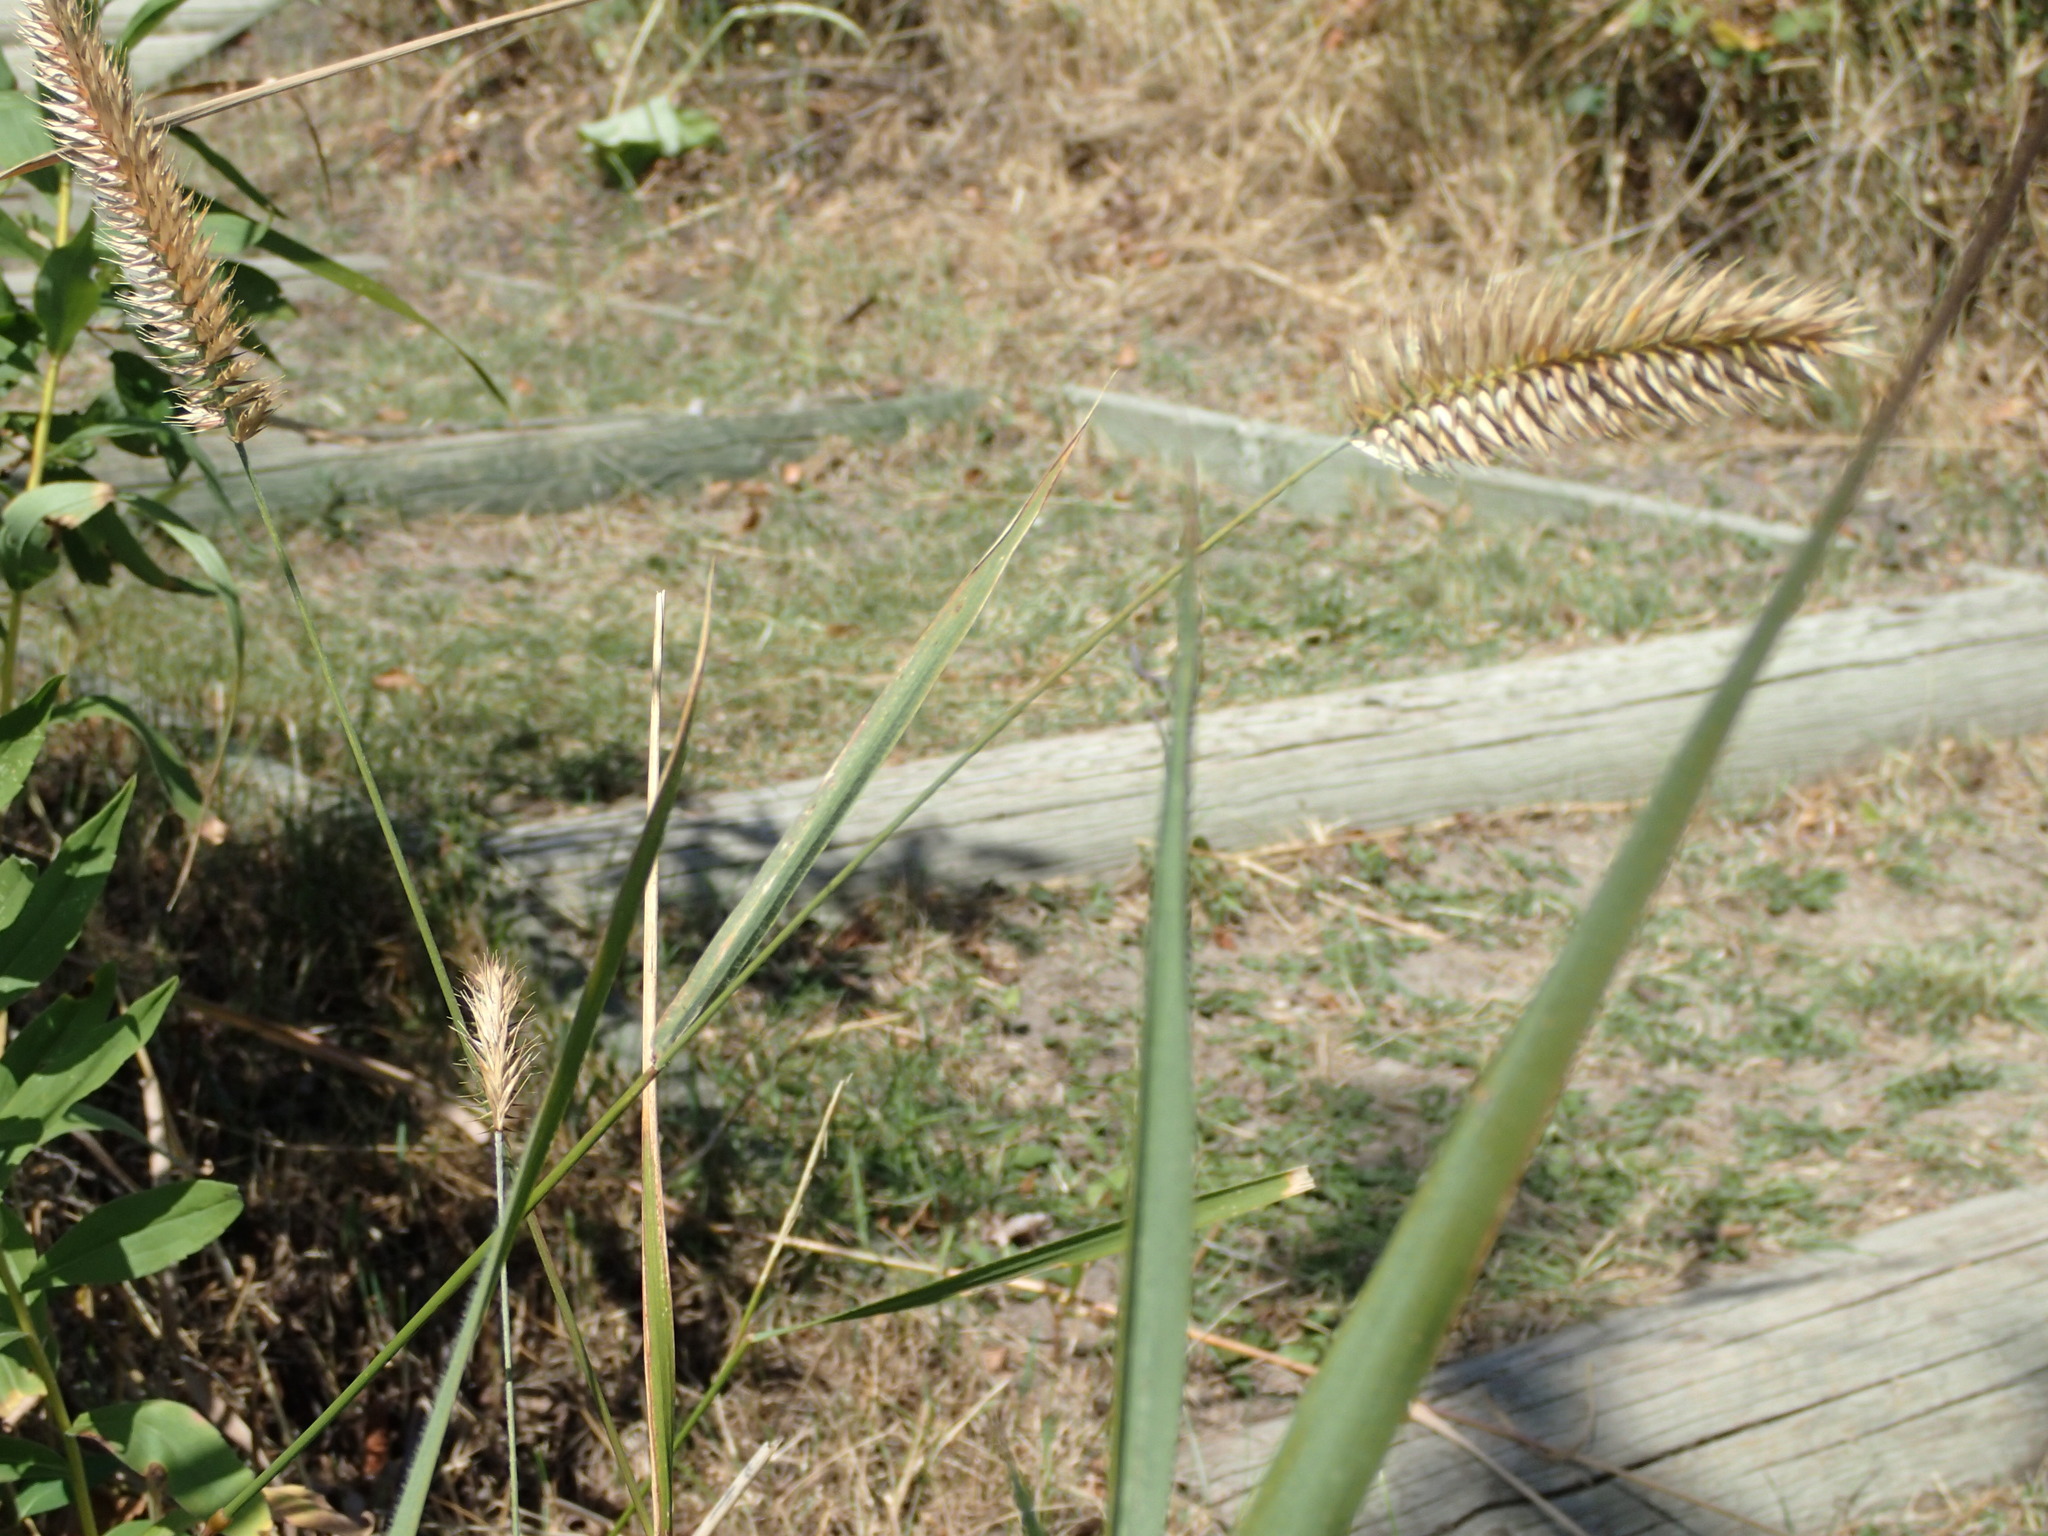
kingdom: Plantae
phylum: Tracheophyta
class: Liliopsida
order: Poales
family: Poaceae
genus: Agropyron
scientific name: Agropyron cristatum
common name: Crested wheatgrass
